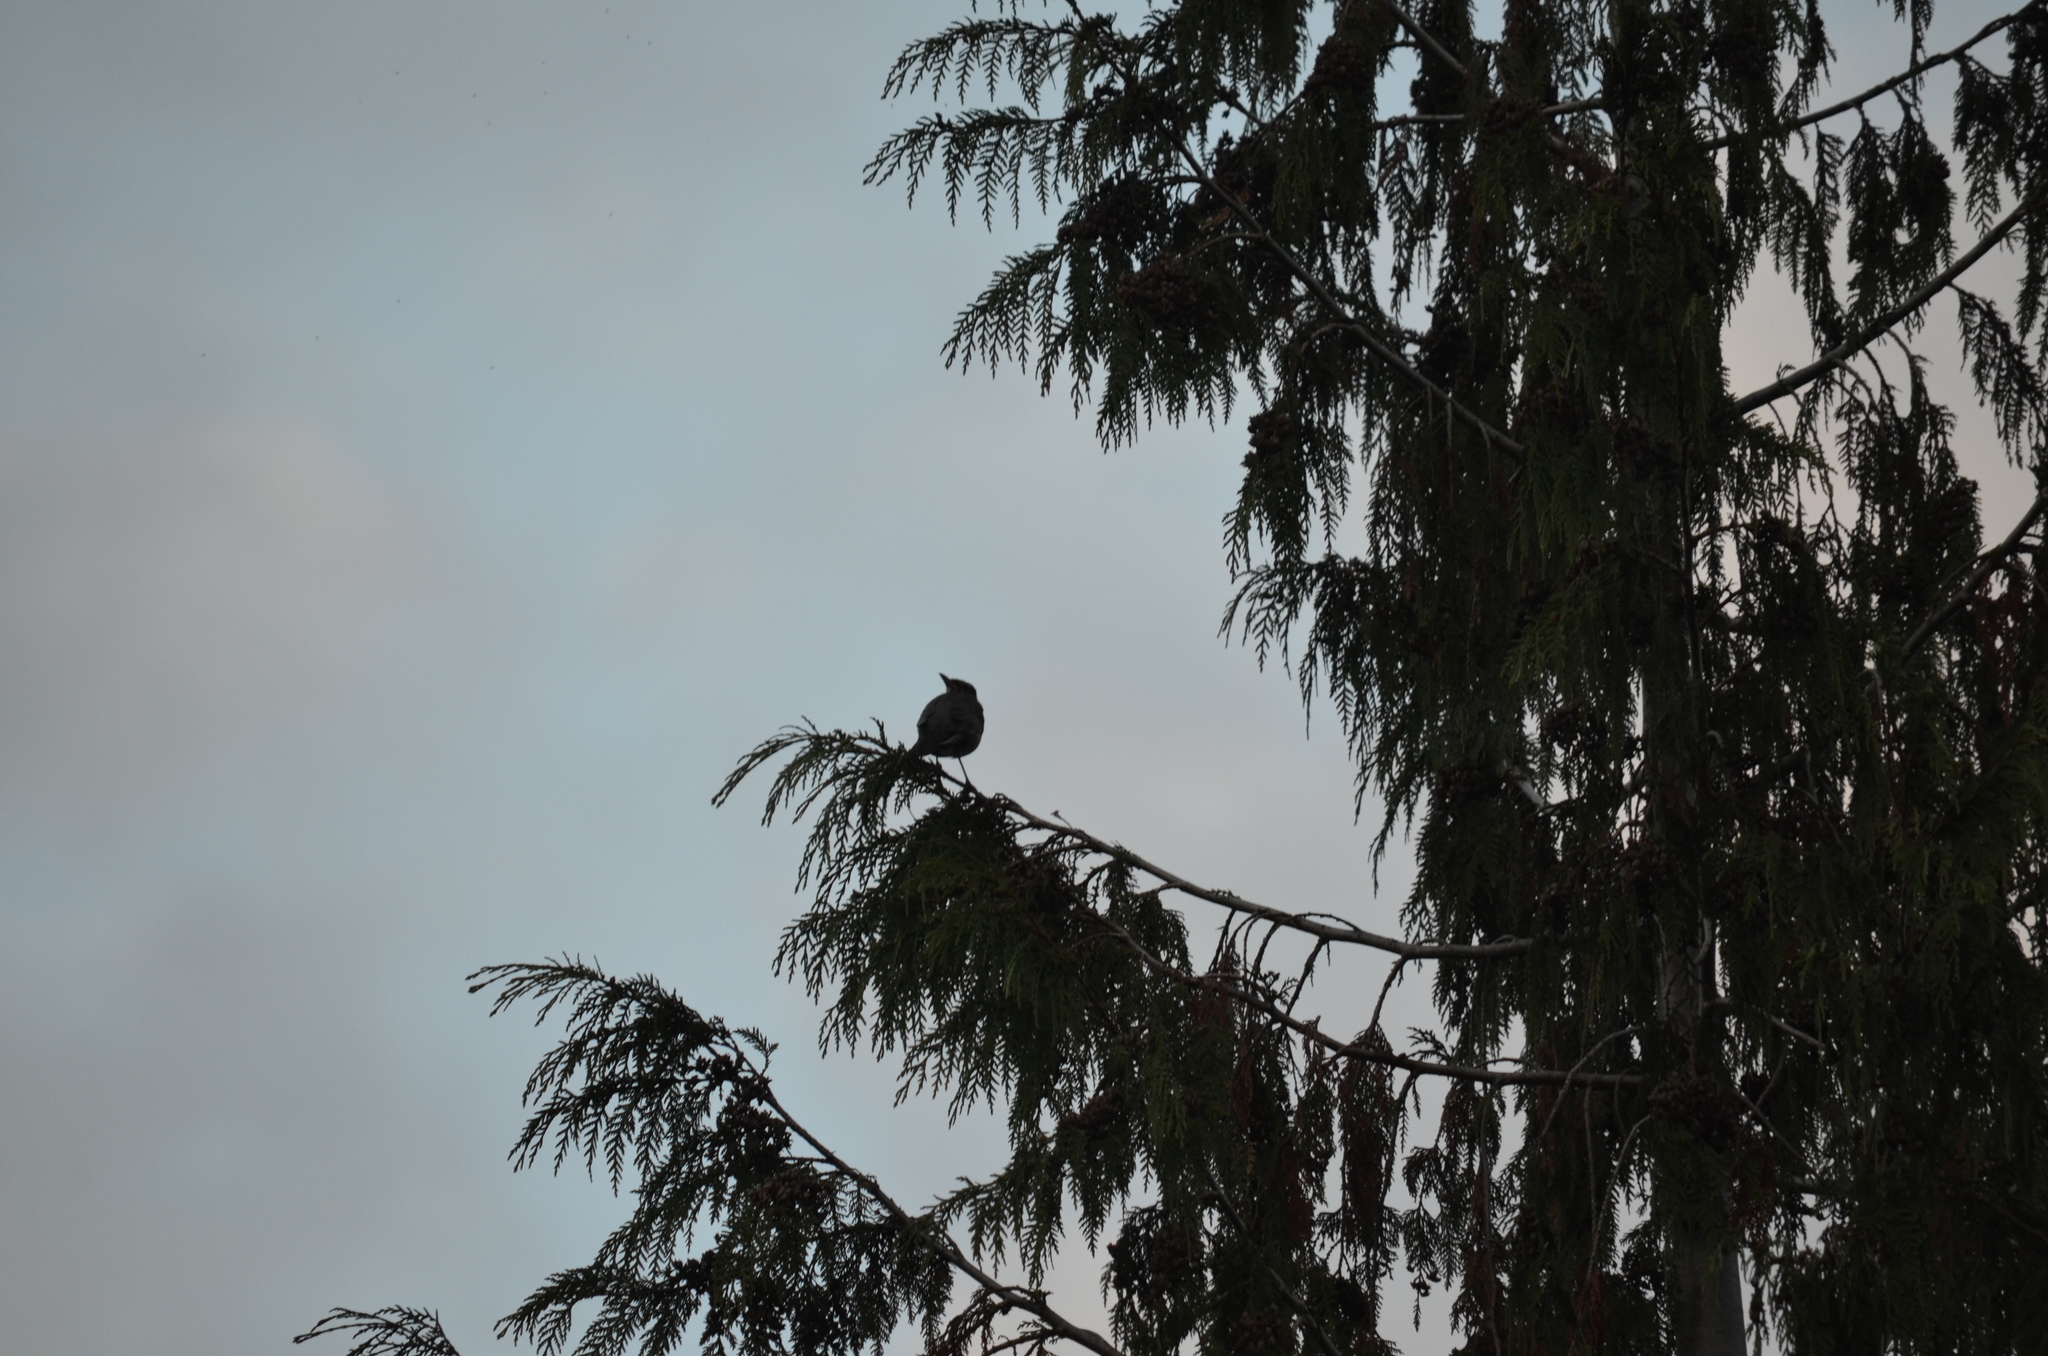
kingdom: Animalia
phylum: Chordata
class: Aves
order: Passeriformes
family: Turdidae
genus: Turdus
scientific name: Turdus migratorius
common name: American robin
